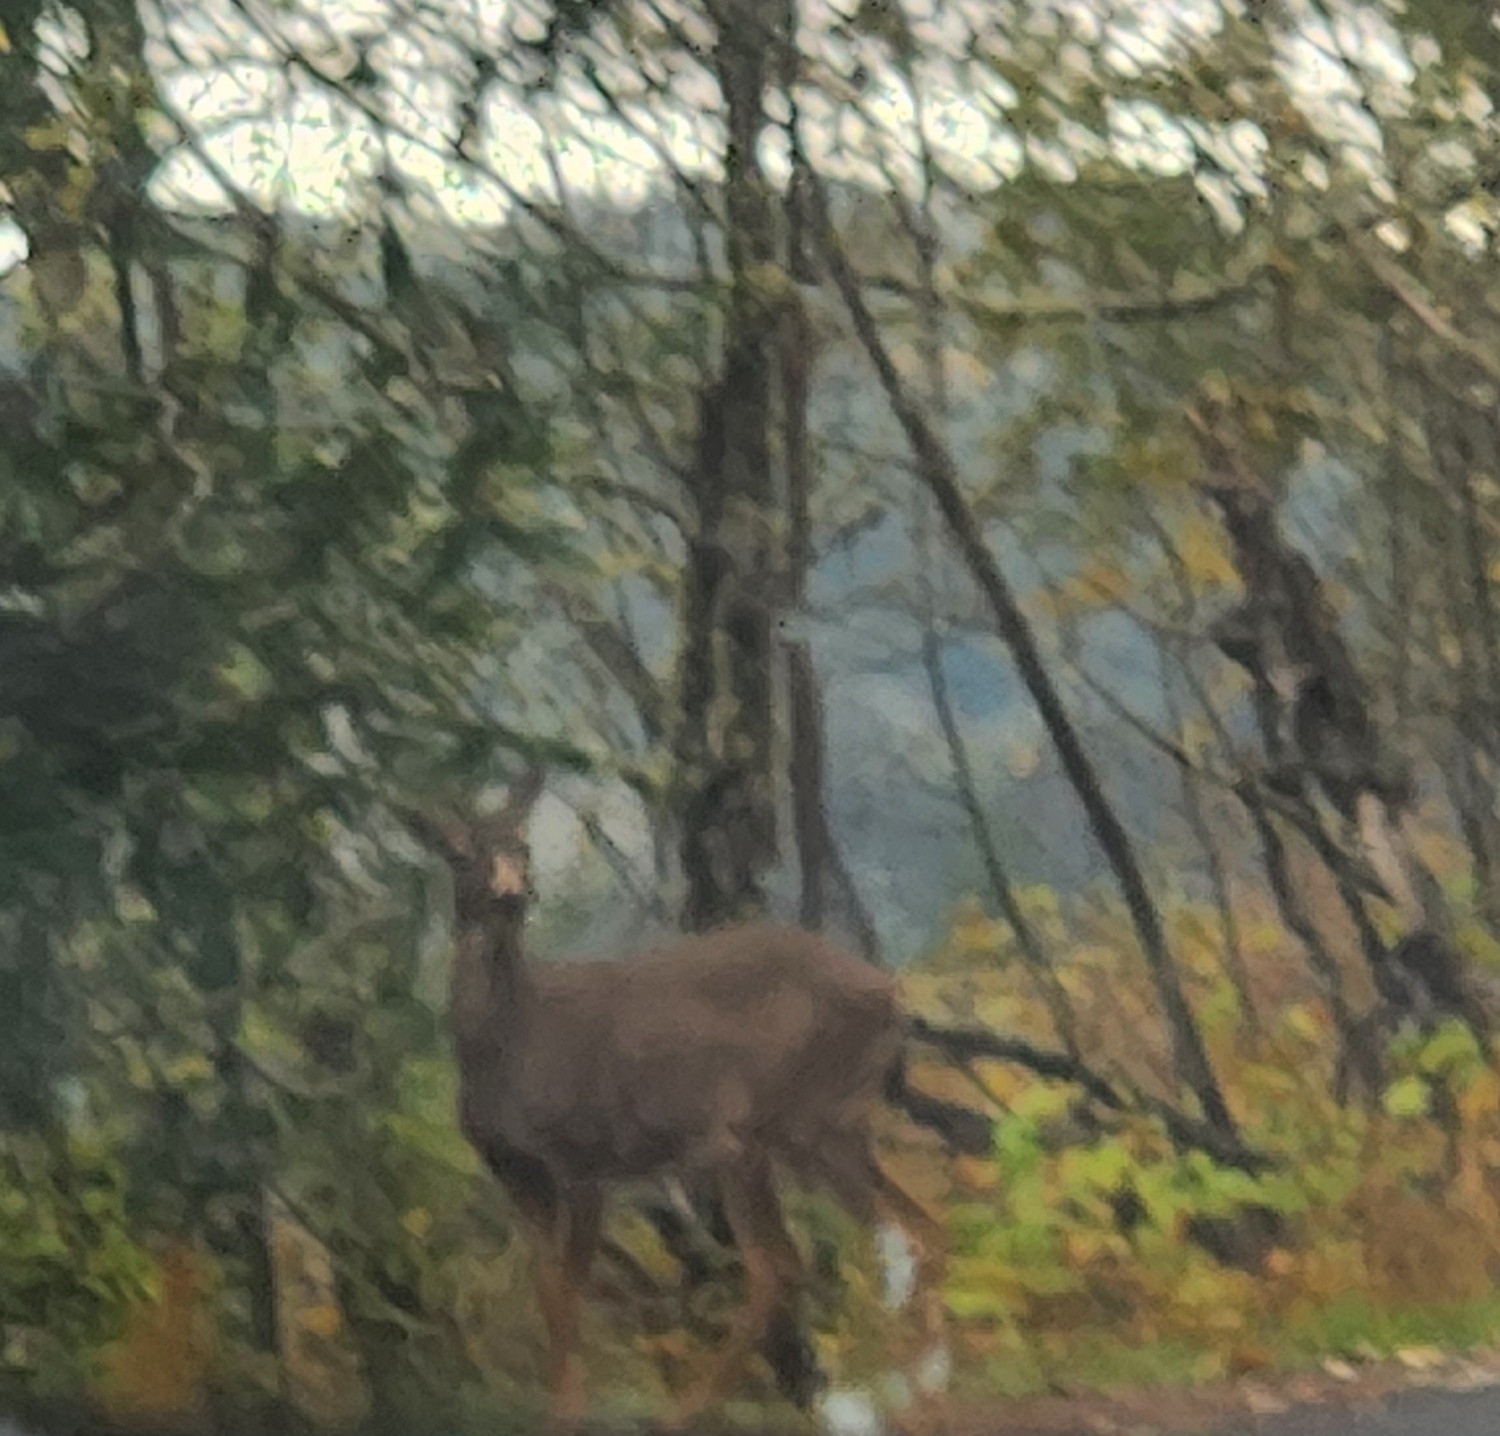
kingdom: Animalia
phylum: Chordata
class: Mammalia
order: Artiodactyla
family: Cervidae
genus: Odocoileus
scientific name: Odocoileus hemionus
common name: Mule deer
